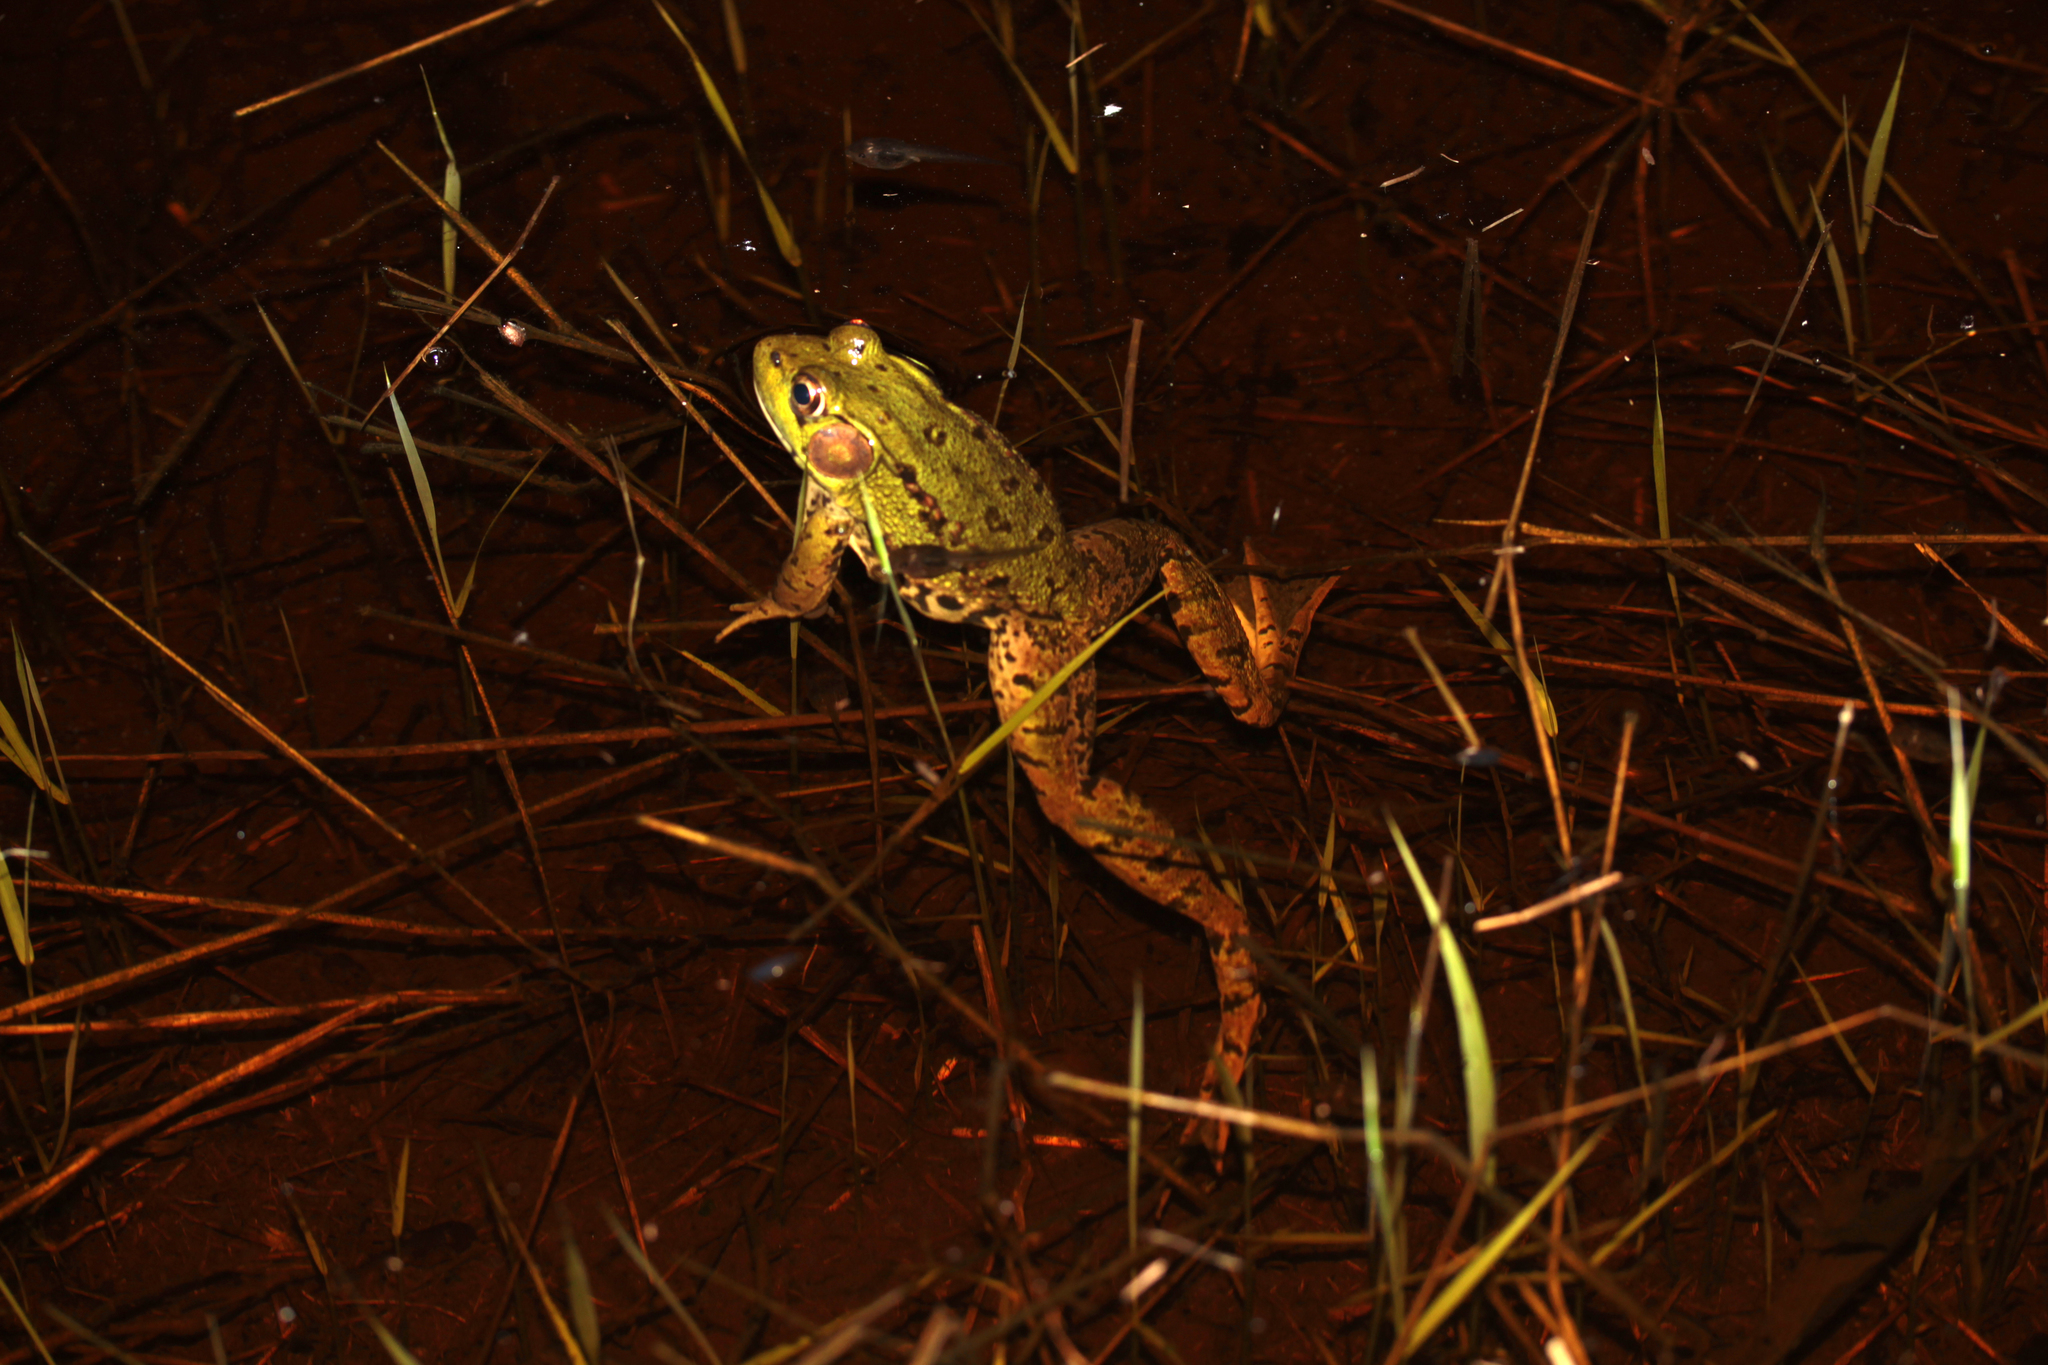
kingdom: Animalia
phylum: Chordata
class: Amphibia
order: Anura
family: Ranidae
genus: Lithobates
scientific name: Lithobates clamitans
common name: Green frog
